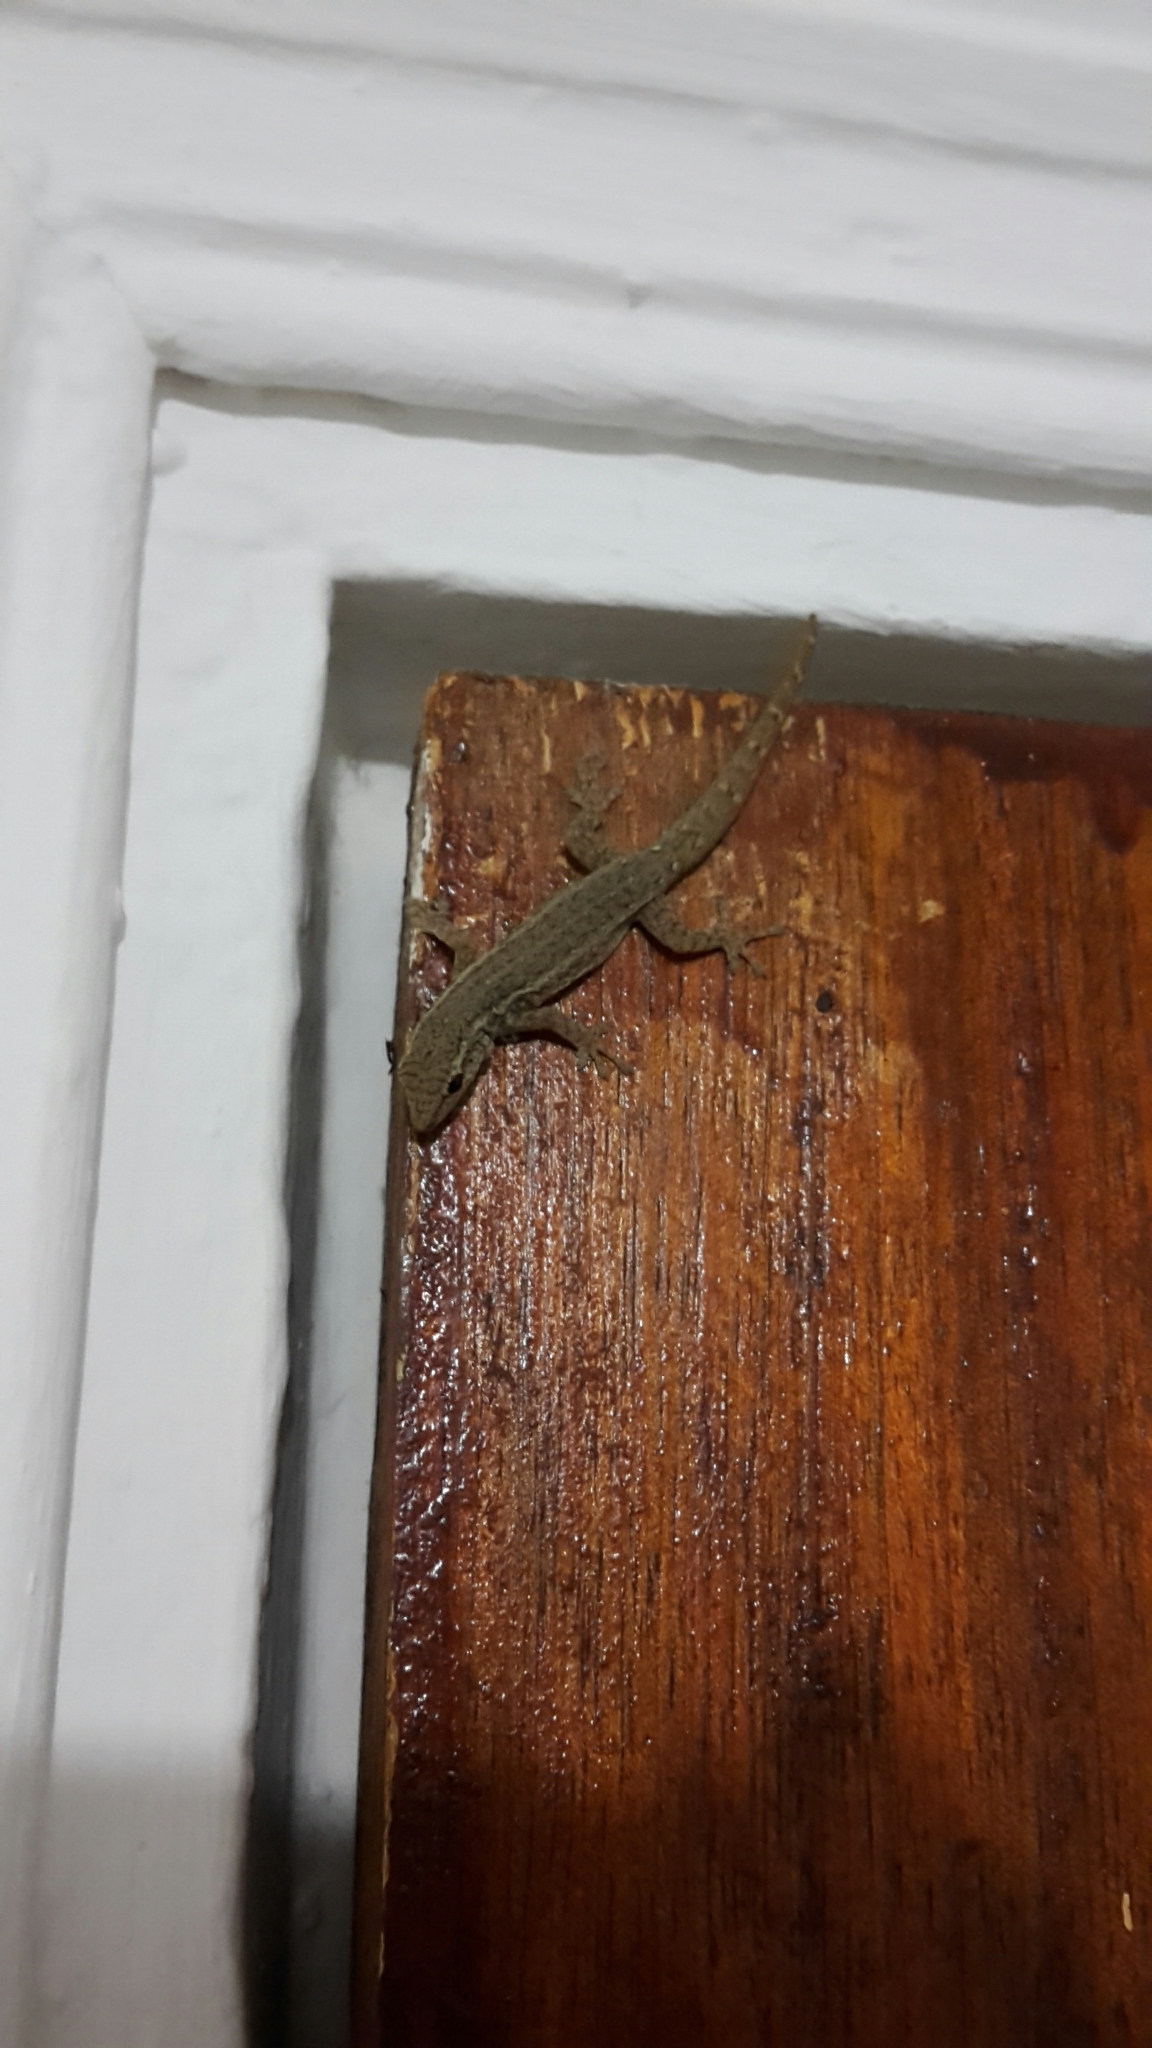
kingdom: Animalia
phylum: Chordata
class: Squamata
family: Gekkonidae
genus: Lygodactylus
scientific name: Lygodactylus capensis
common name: Cape dwarf gecko
